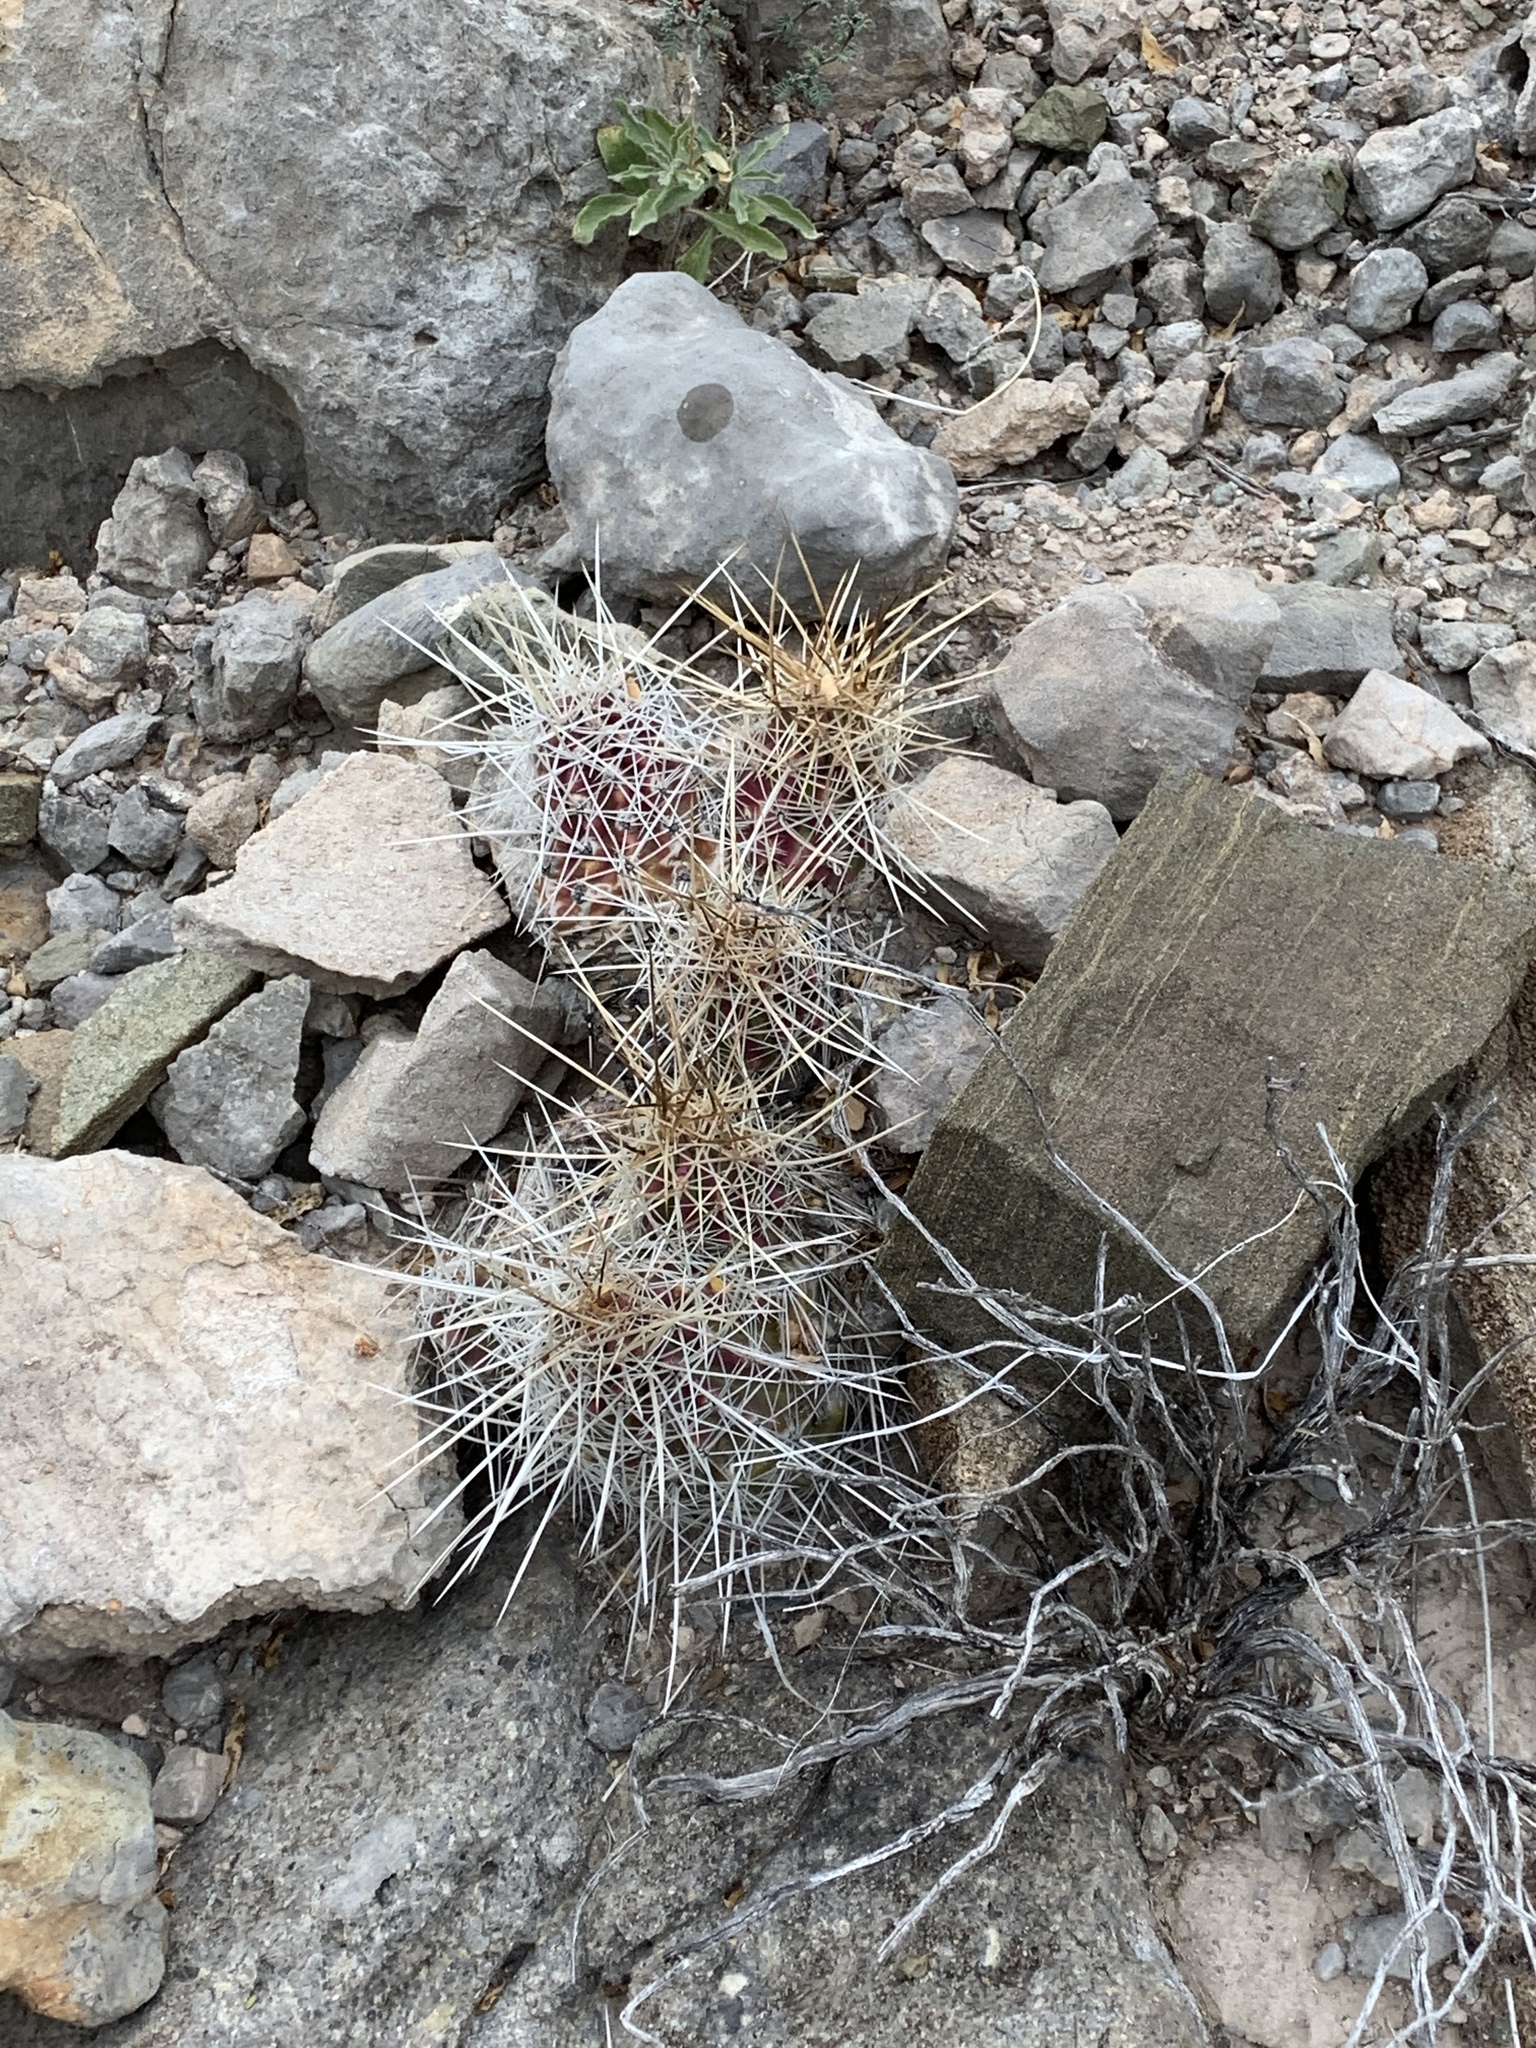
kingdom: Plantae
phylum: Tracheophyta
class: Magnoliopsida
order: Caryophyllales
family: Cactaceae
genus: Echinocereus
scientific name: Echinocereus stramineus
